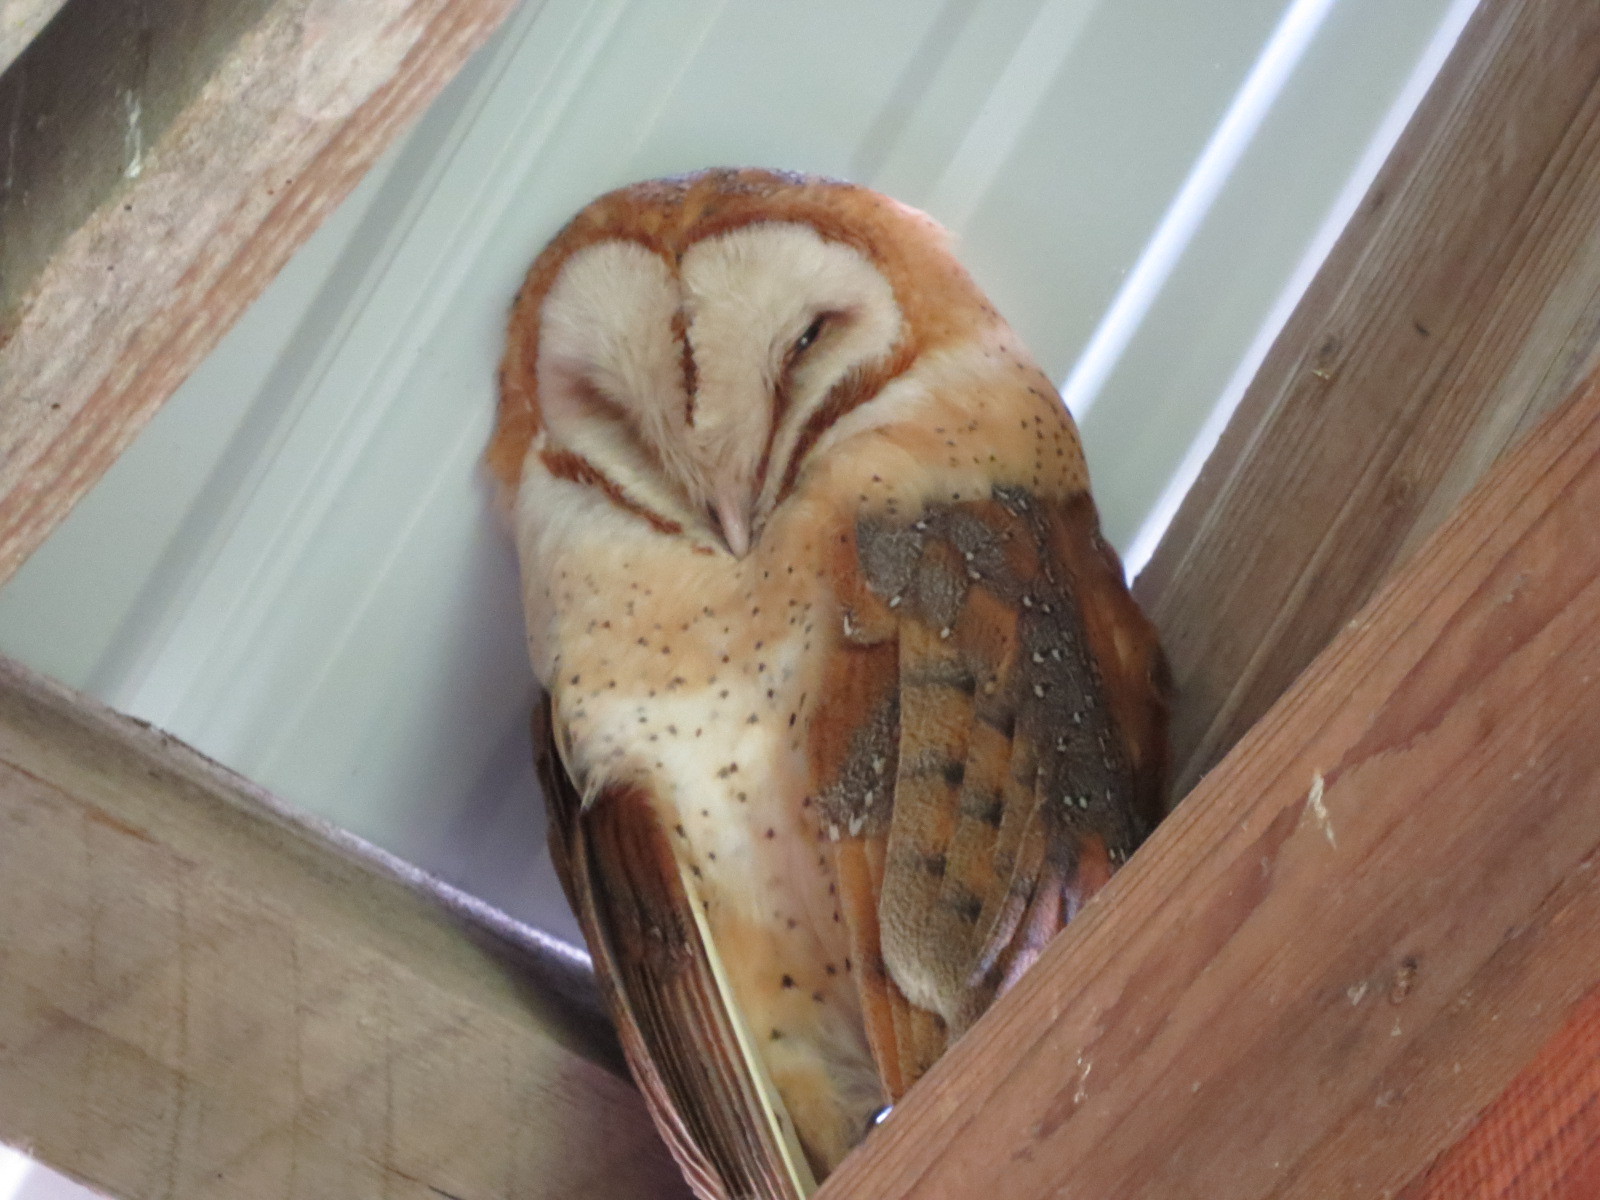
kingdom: Animalia
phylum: Chordata
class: Aves
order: Strigiformes
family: Tytonidae
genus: Tyto
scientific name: Tyto alba
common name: Barn owl
